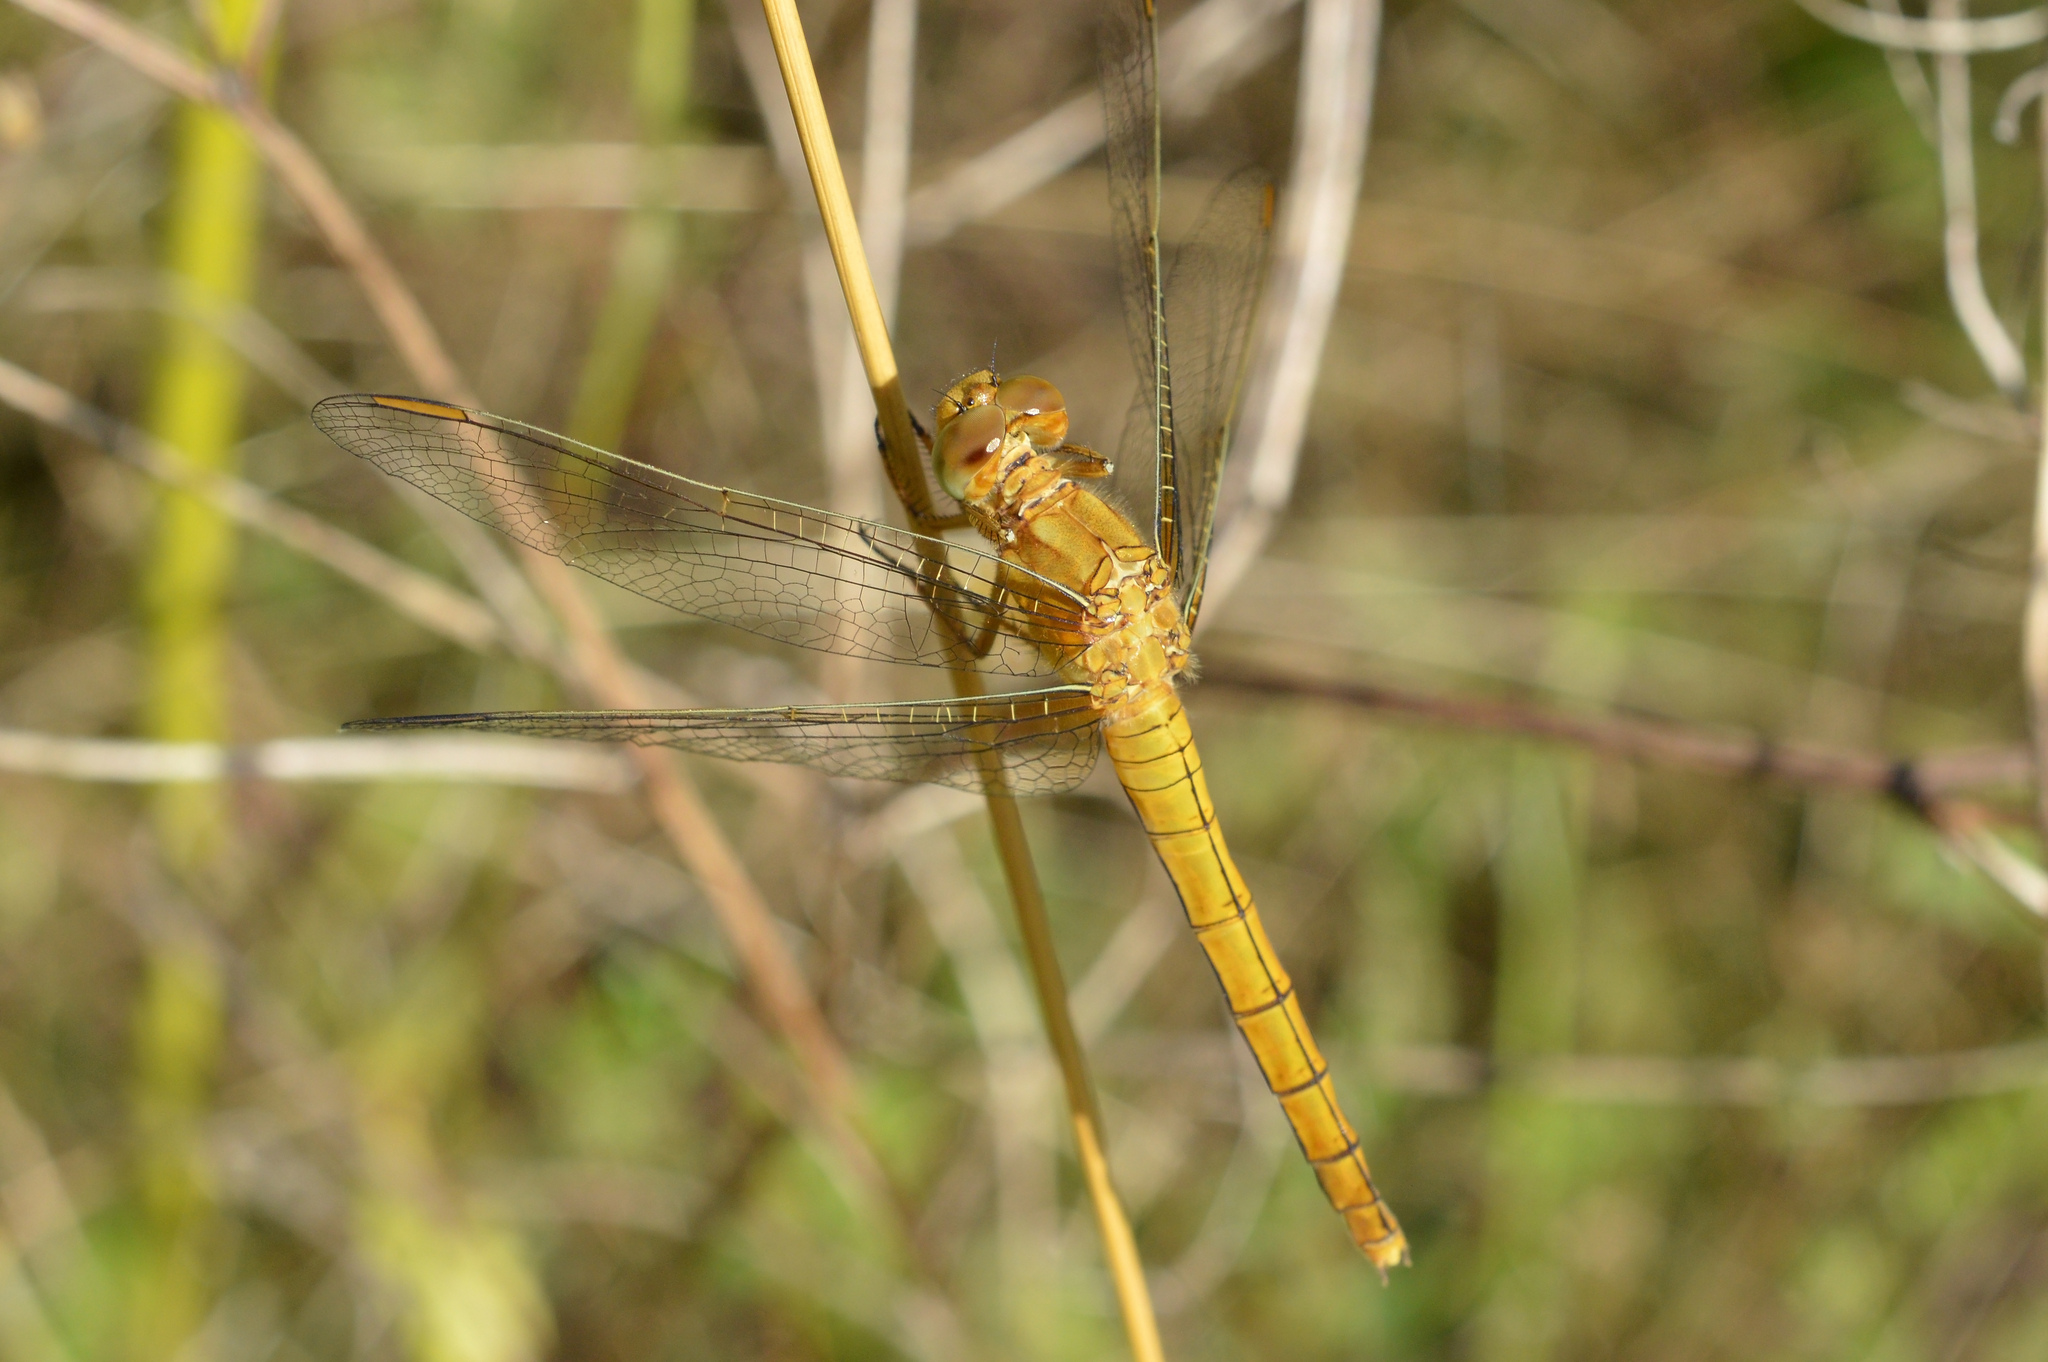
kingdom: Animalia
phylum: Arthropoda
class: Insecta
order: Odonata
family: Libellulidae
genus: Orthetrum
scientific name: Orthetrum coerulescens
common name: Keeled skimmer
